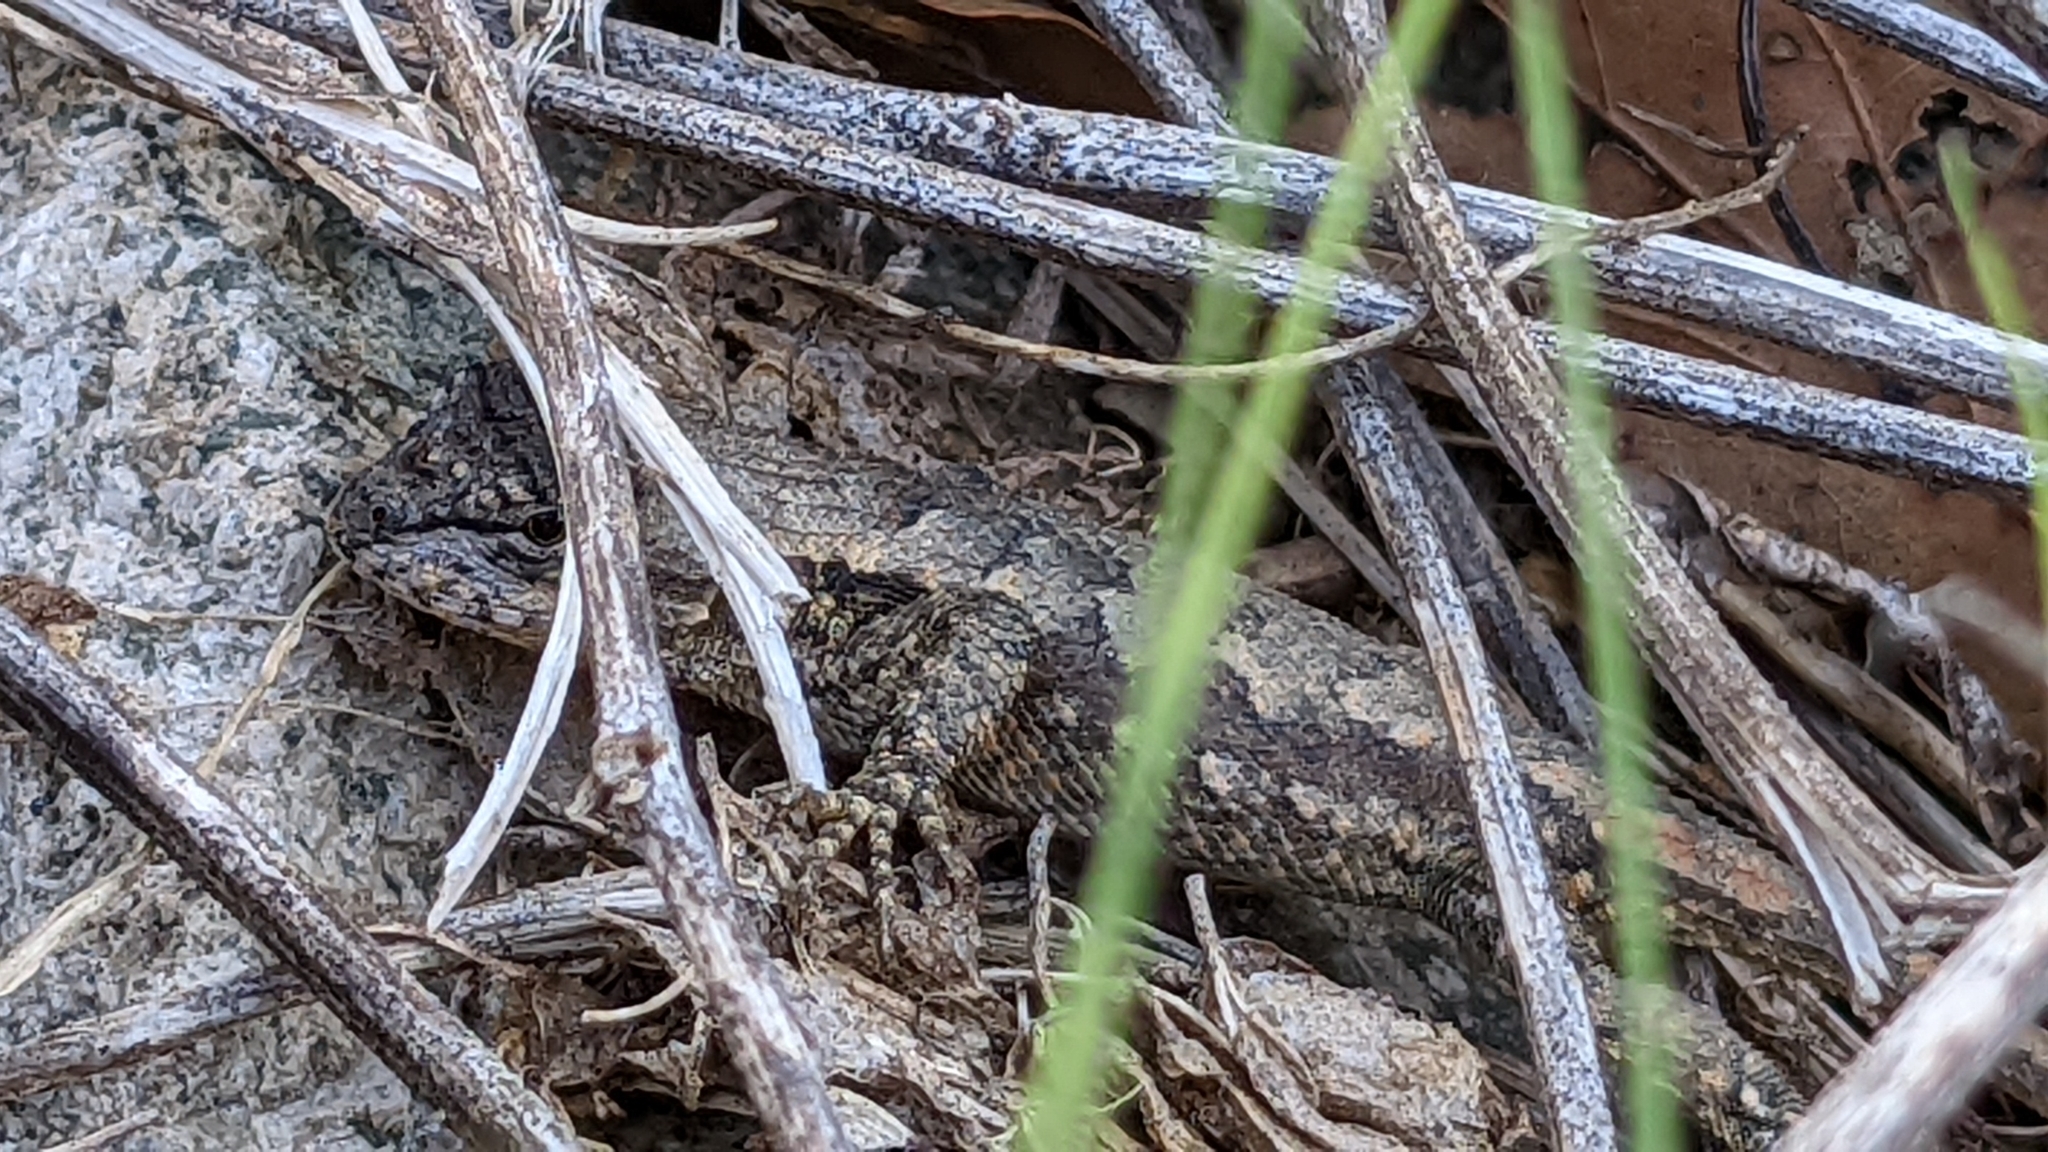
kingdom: Animalia
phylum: Chordata
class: Squamata
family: Phrynosomatidae
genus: Sceloporus
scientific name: Sceloporus consobrinus
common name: Southern prairie lizard
